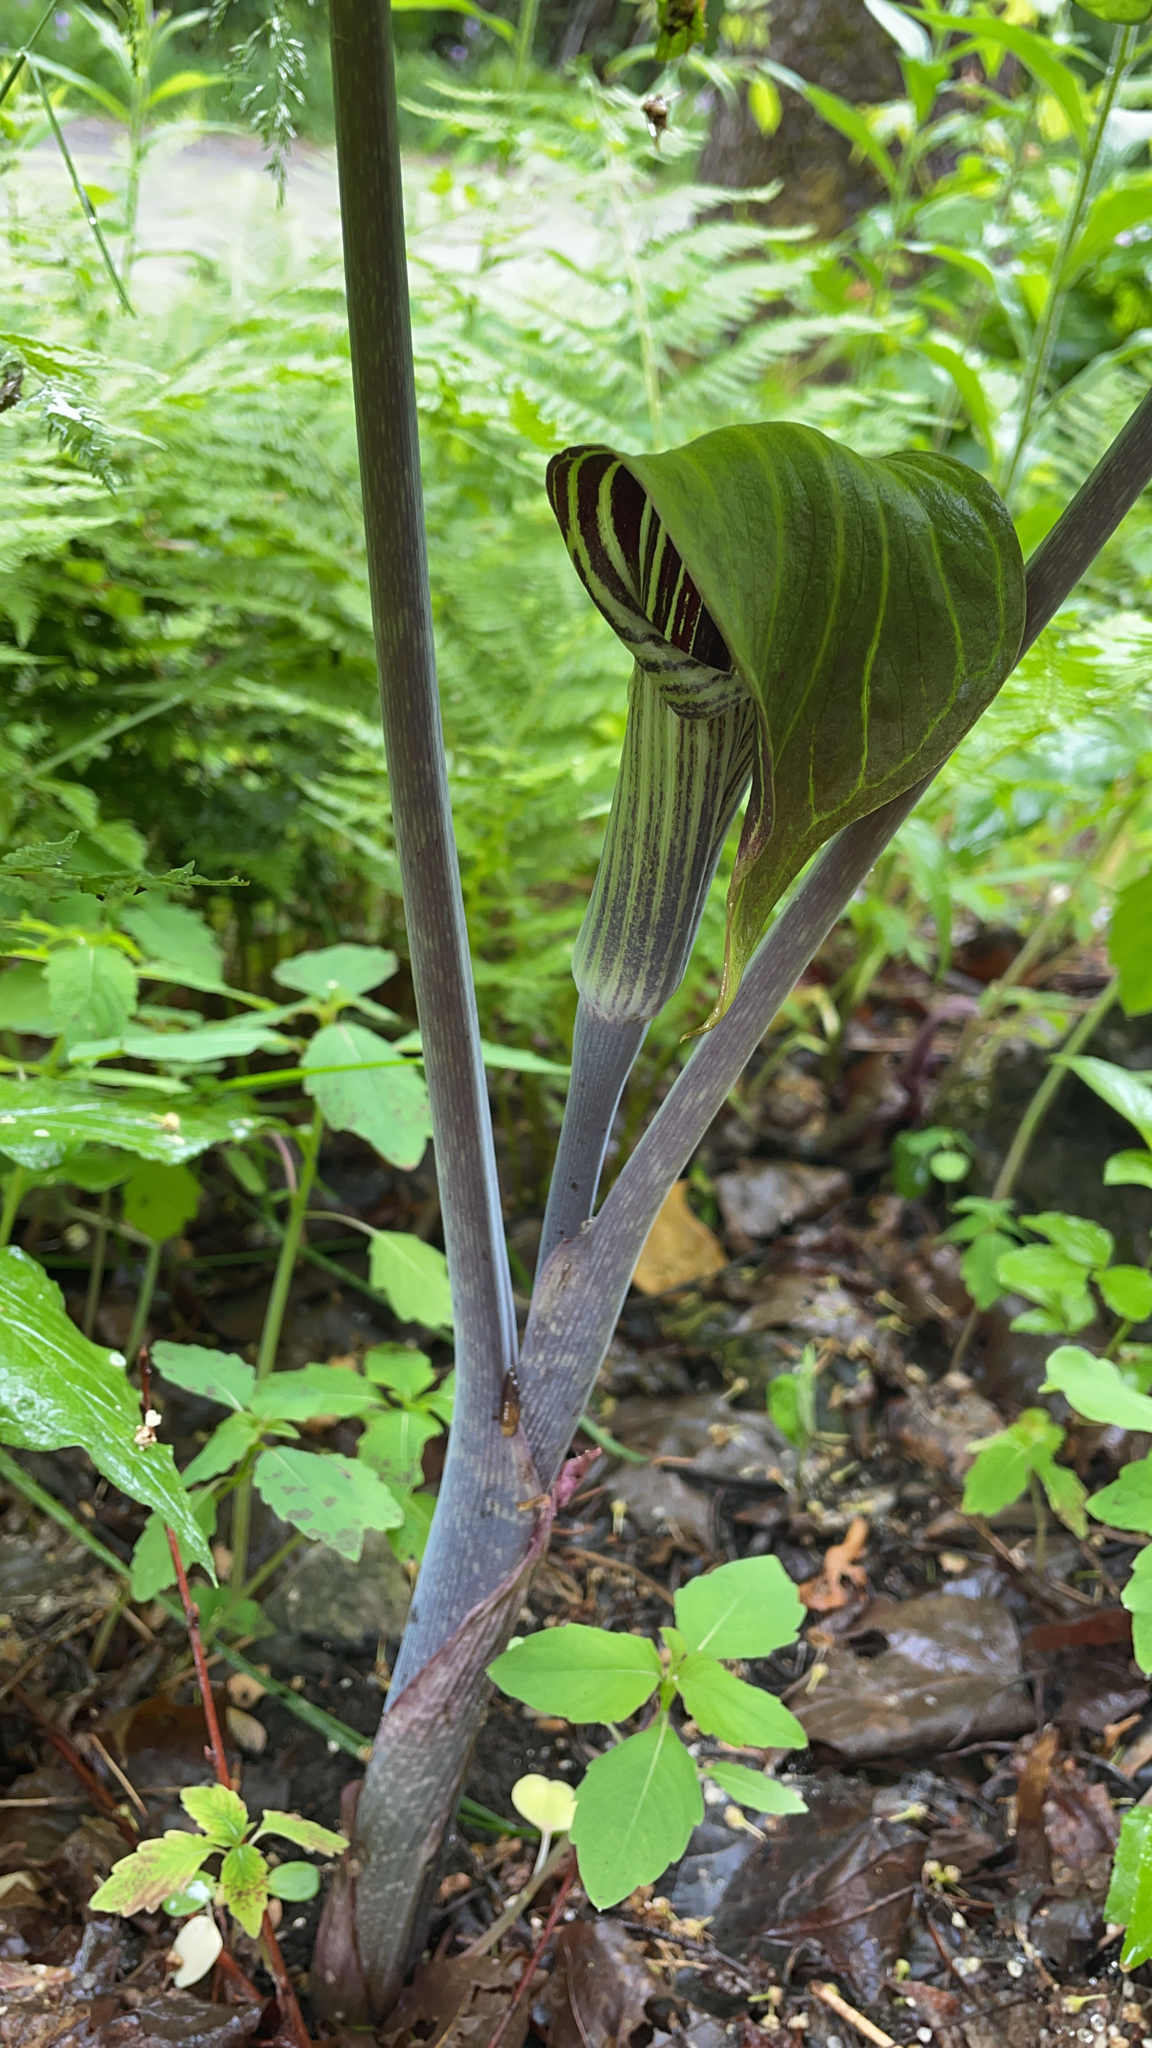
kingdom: Plantae
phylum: Tracheophyta
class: Liliopsida
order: Alismatales
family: Araceae
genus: Arisaema
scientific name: Arisaema triphyllum
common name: Jack-in-the-pulpit
